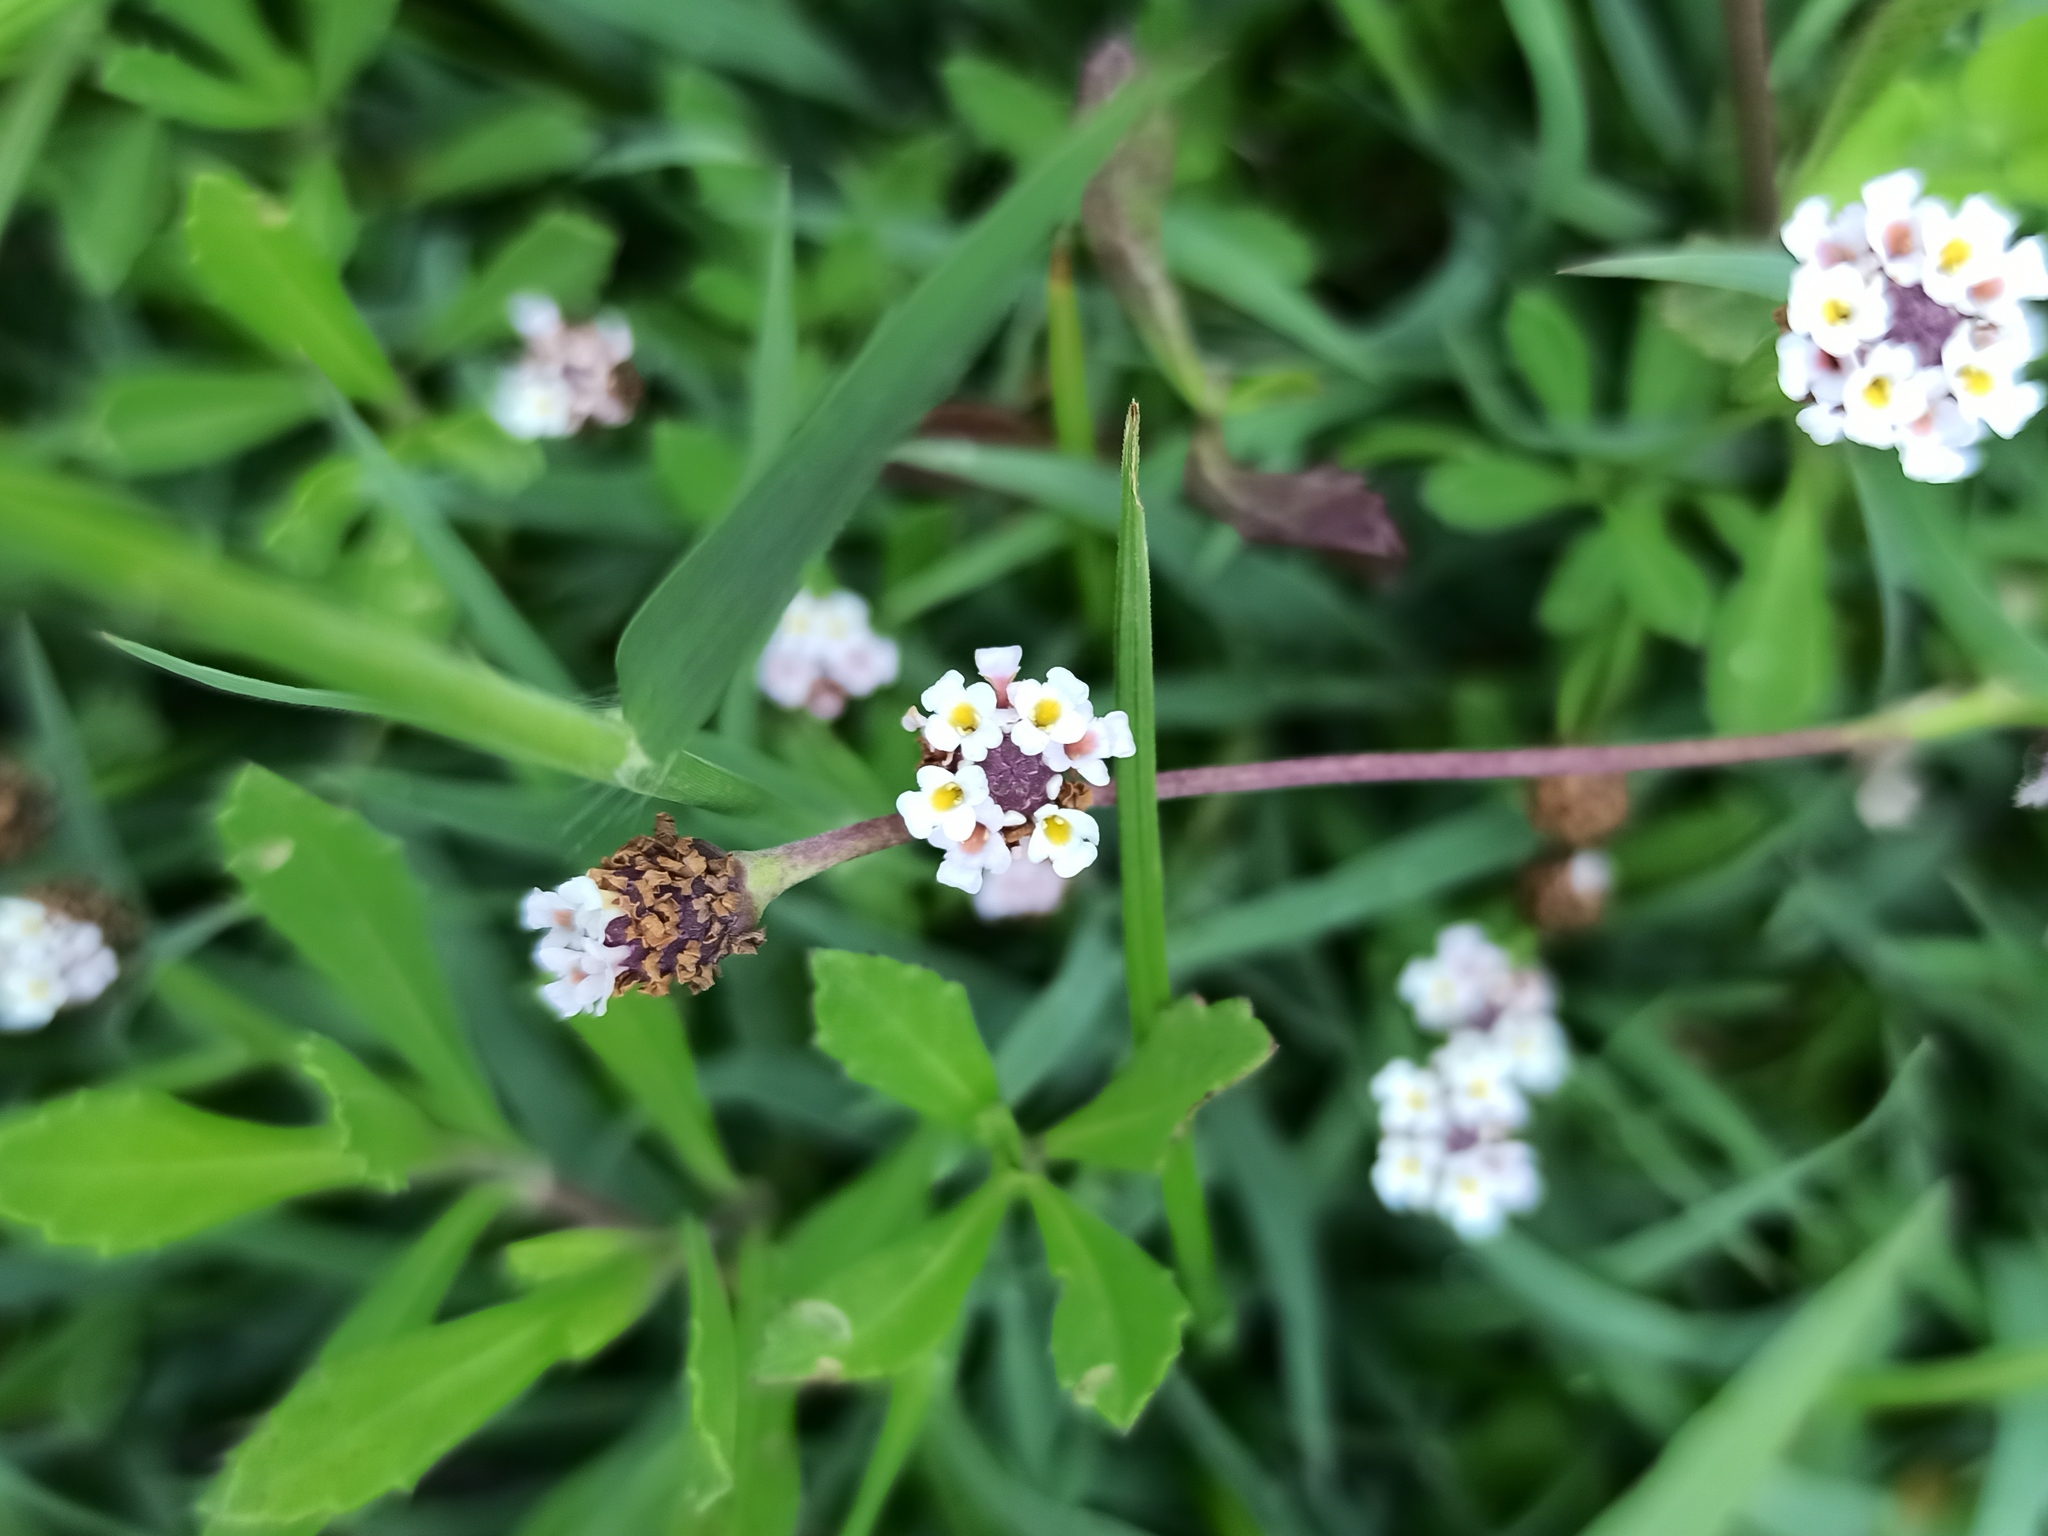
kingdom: Plantae
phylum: Tracheophyta
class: Magnoliopsida
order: Lamiales
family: Verbenaceae
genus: Phyla
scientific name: Phyla nodiflora
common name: Frogfruit
